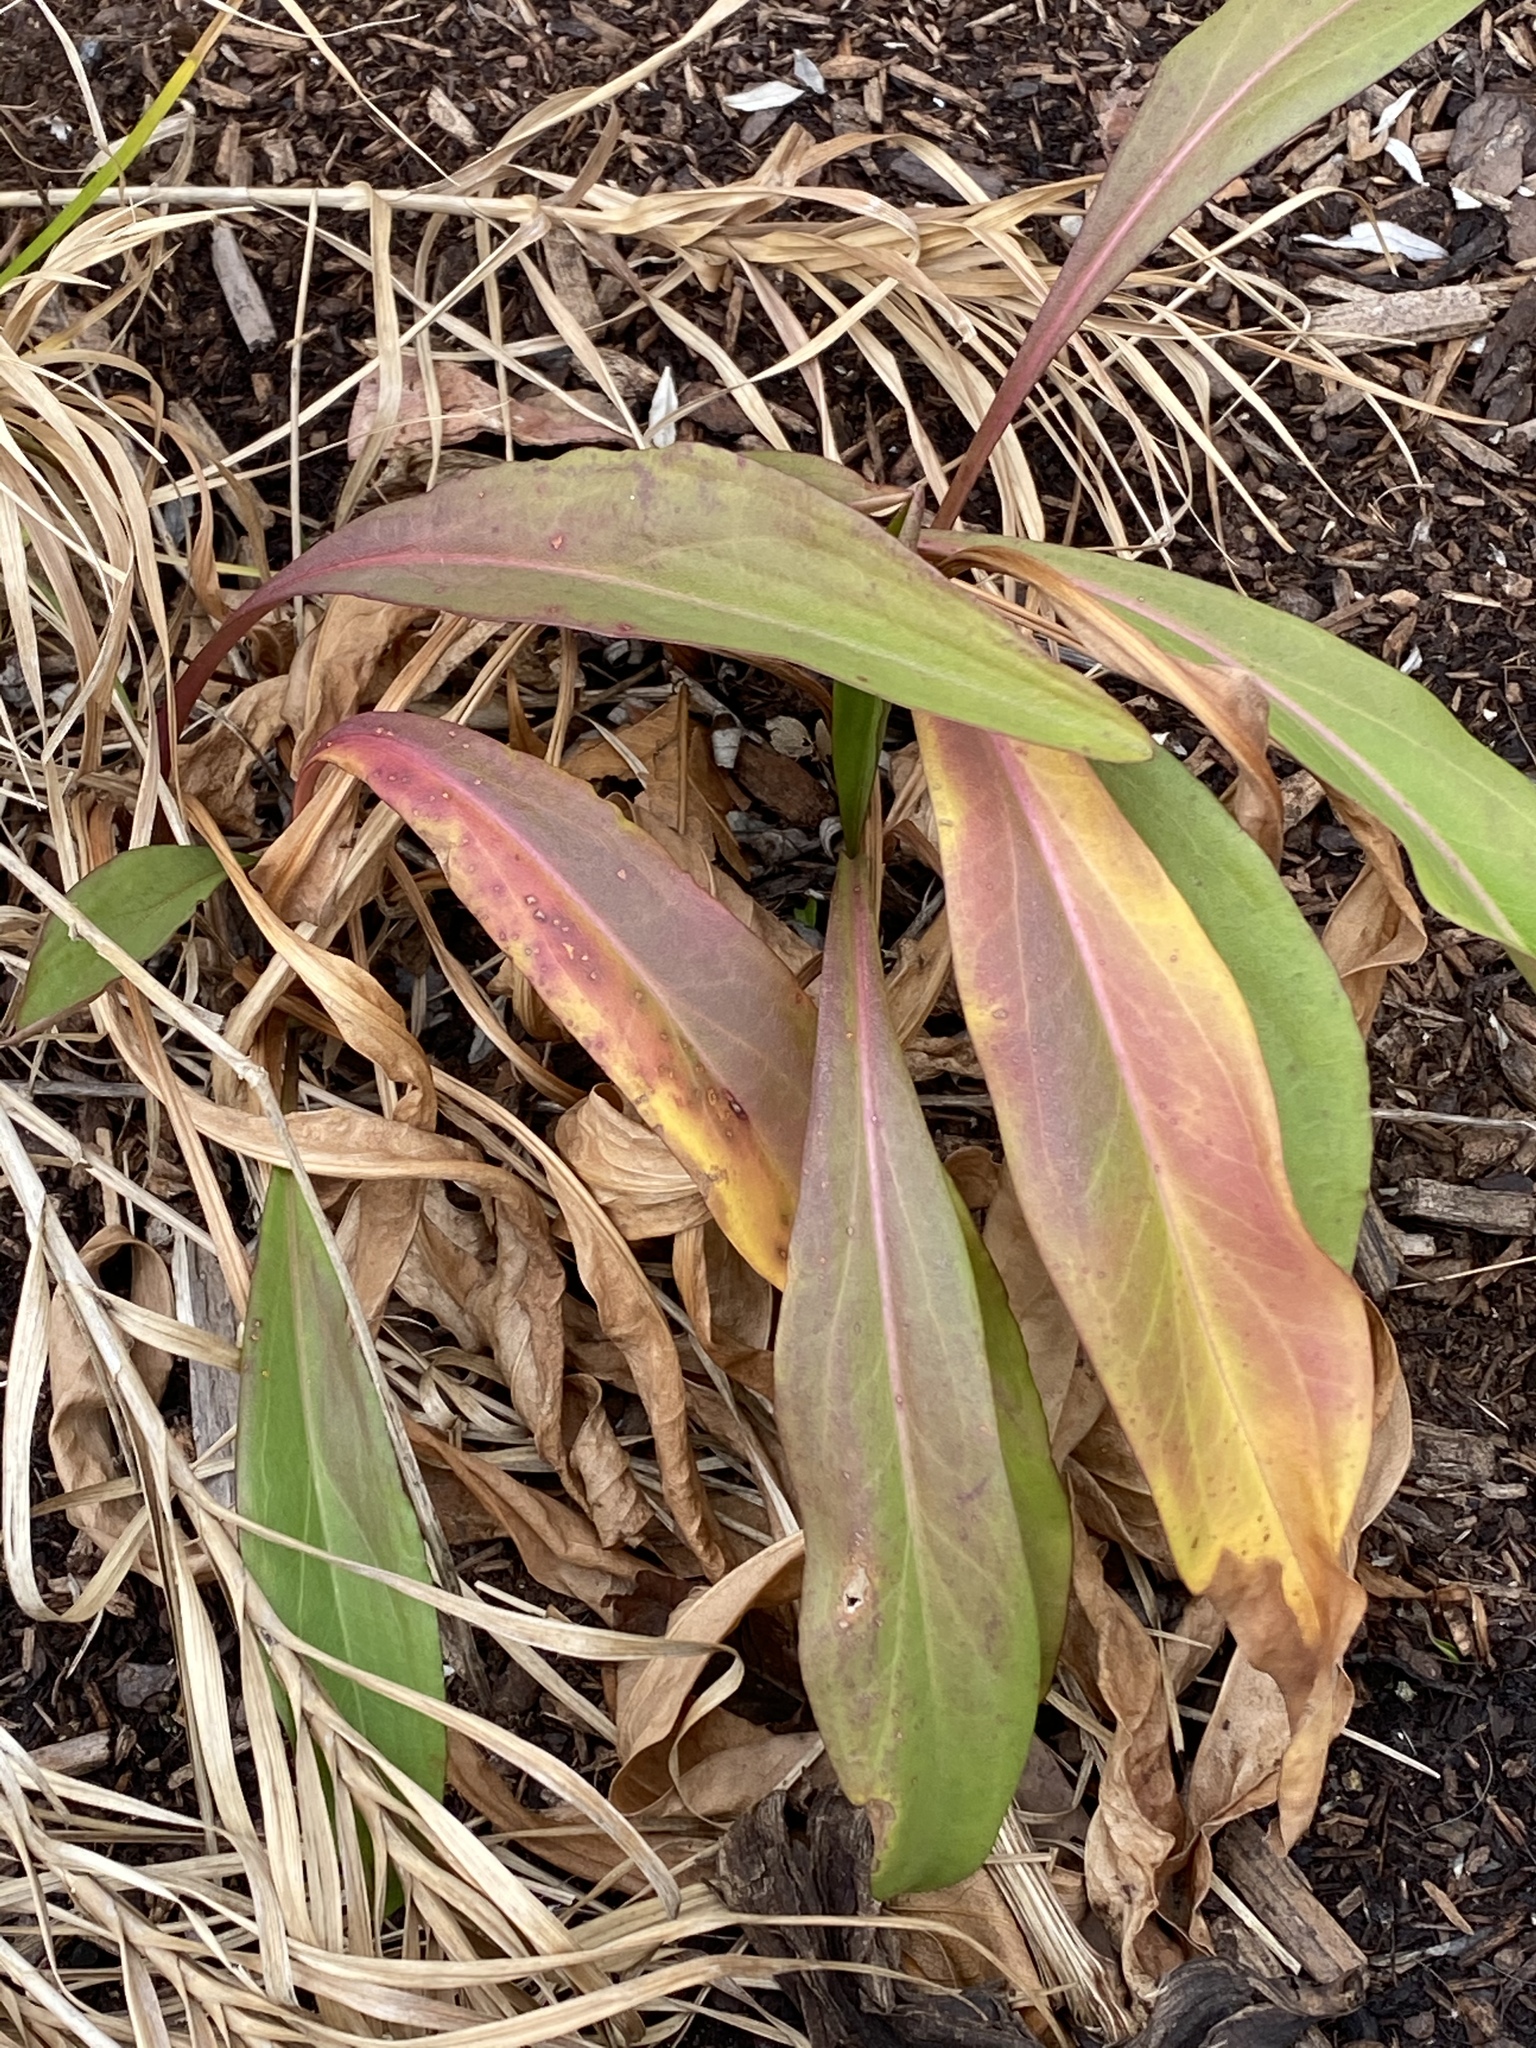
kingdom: Plantae
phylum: Tracheophyta
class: Magnoliopsida
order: Asterales
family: Asteraceae
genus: Solidago
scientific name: Solidago sempervirens
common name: Salt-marsh goldenrod
